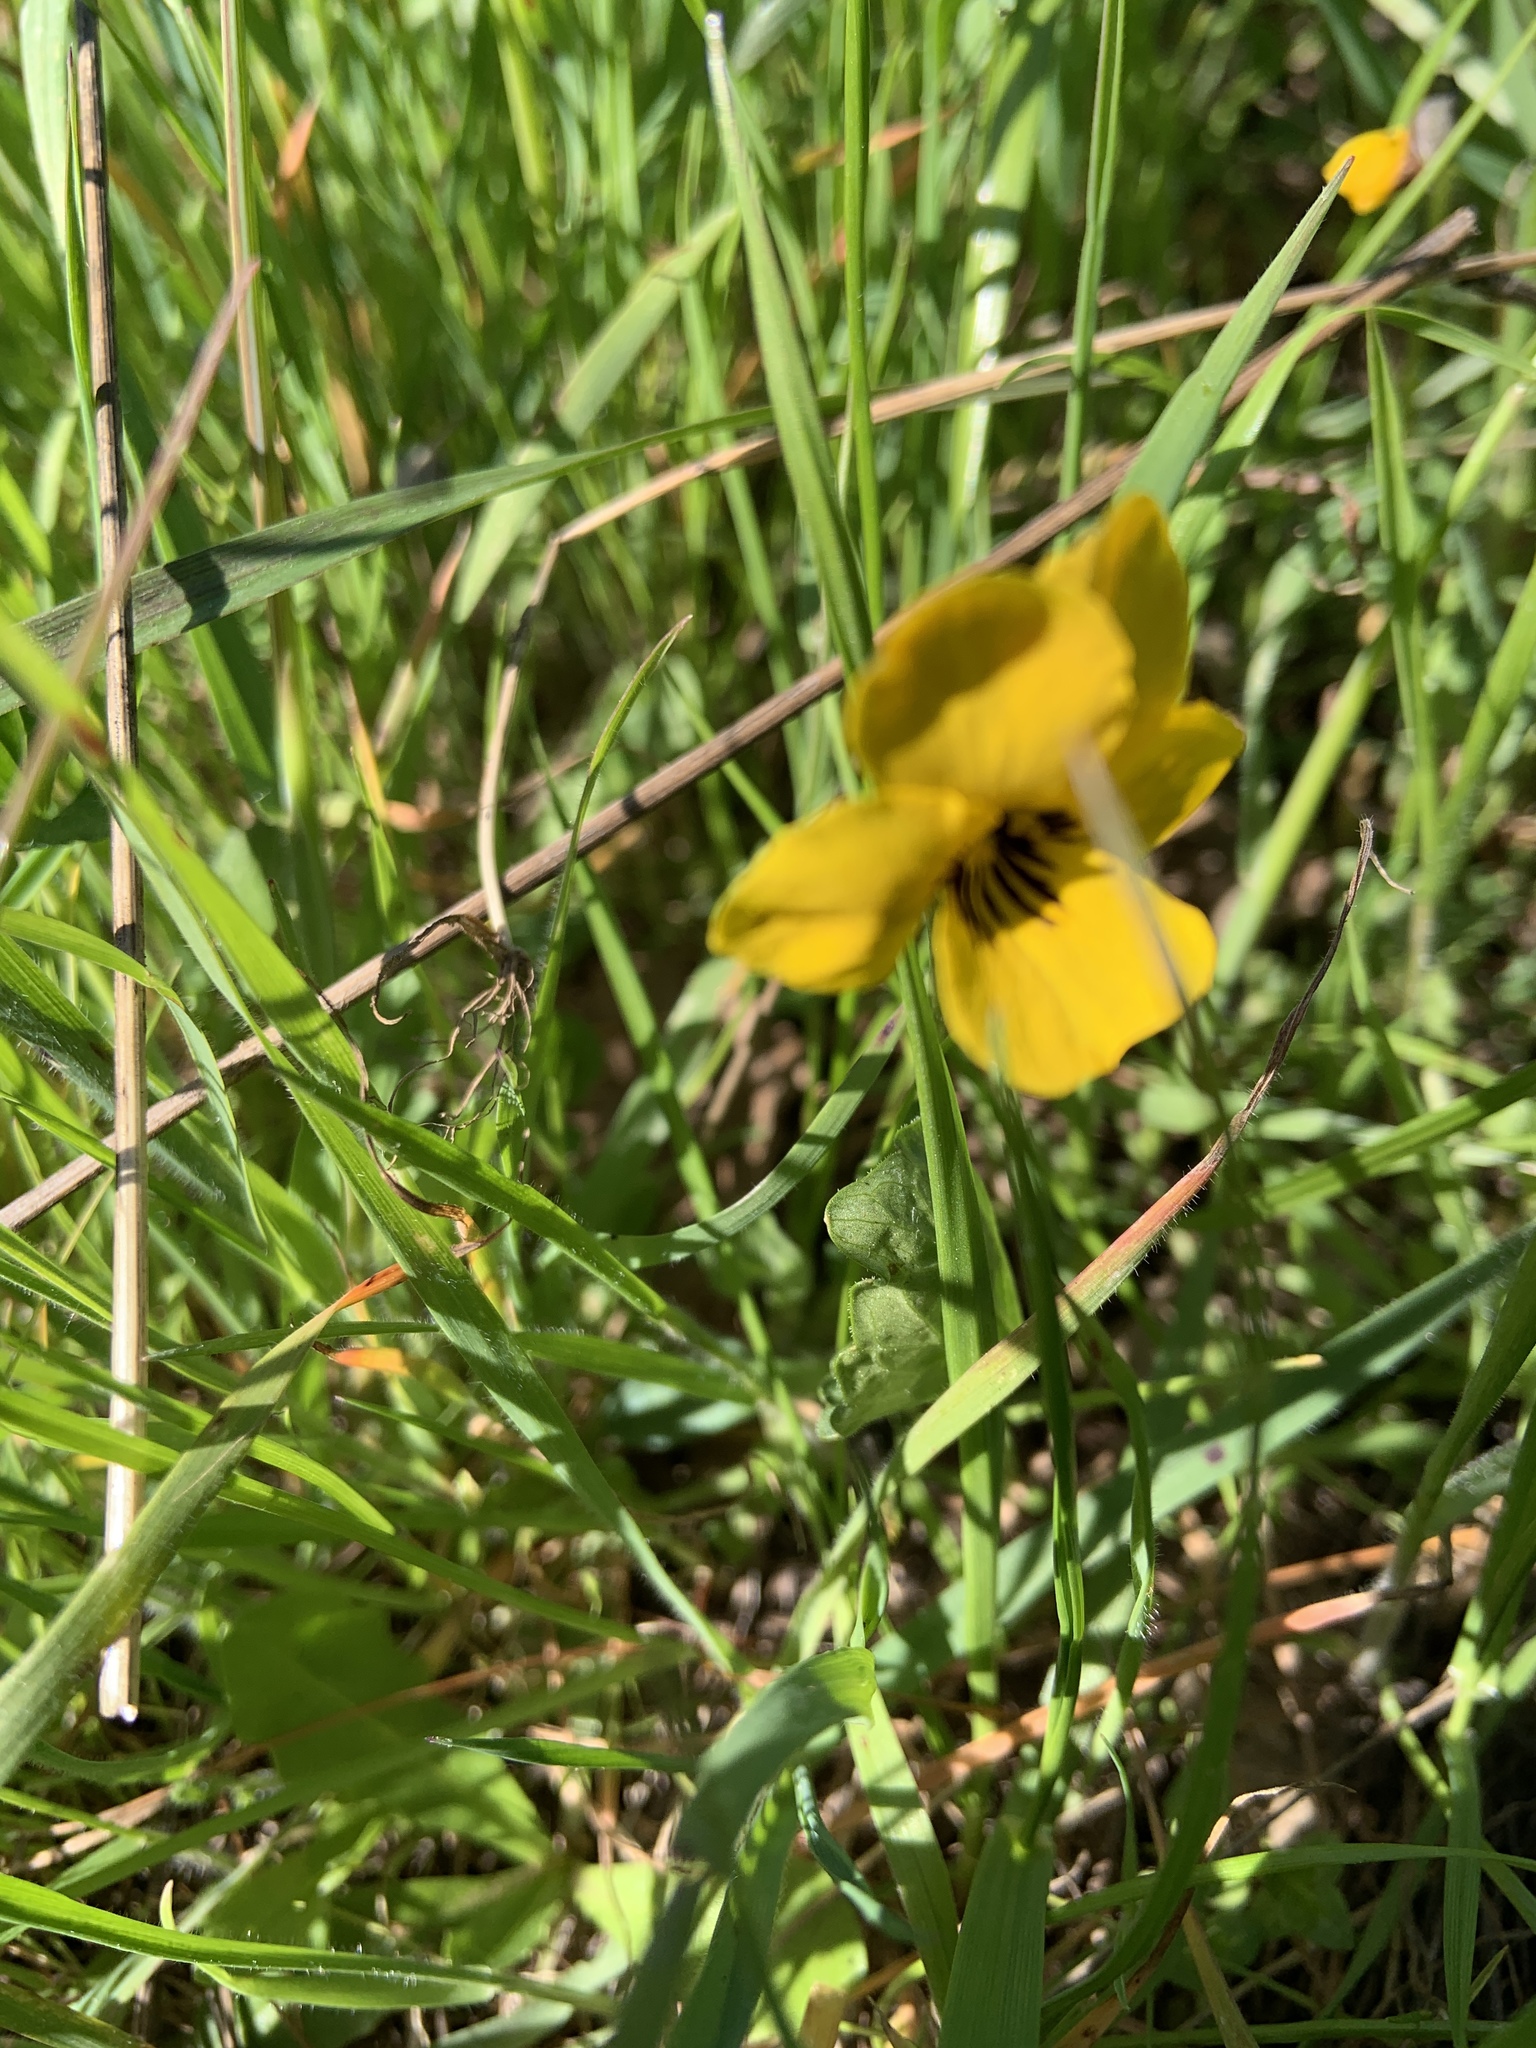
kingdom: Plantae
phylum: Tracheophyta
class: Magnoliopsida
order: Malpighiales
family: Violaceae
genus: Viola
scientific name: Viola pedunculata
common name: California golden violet
